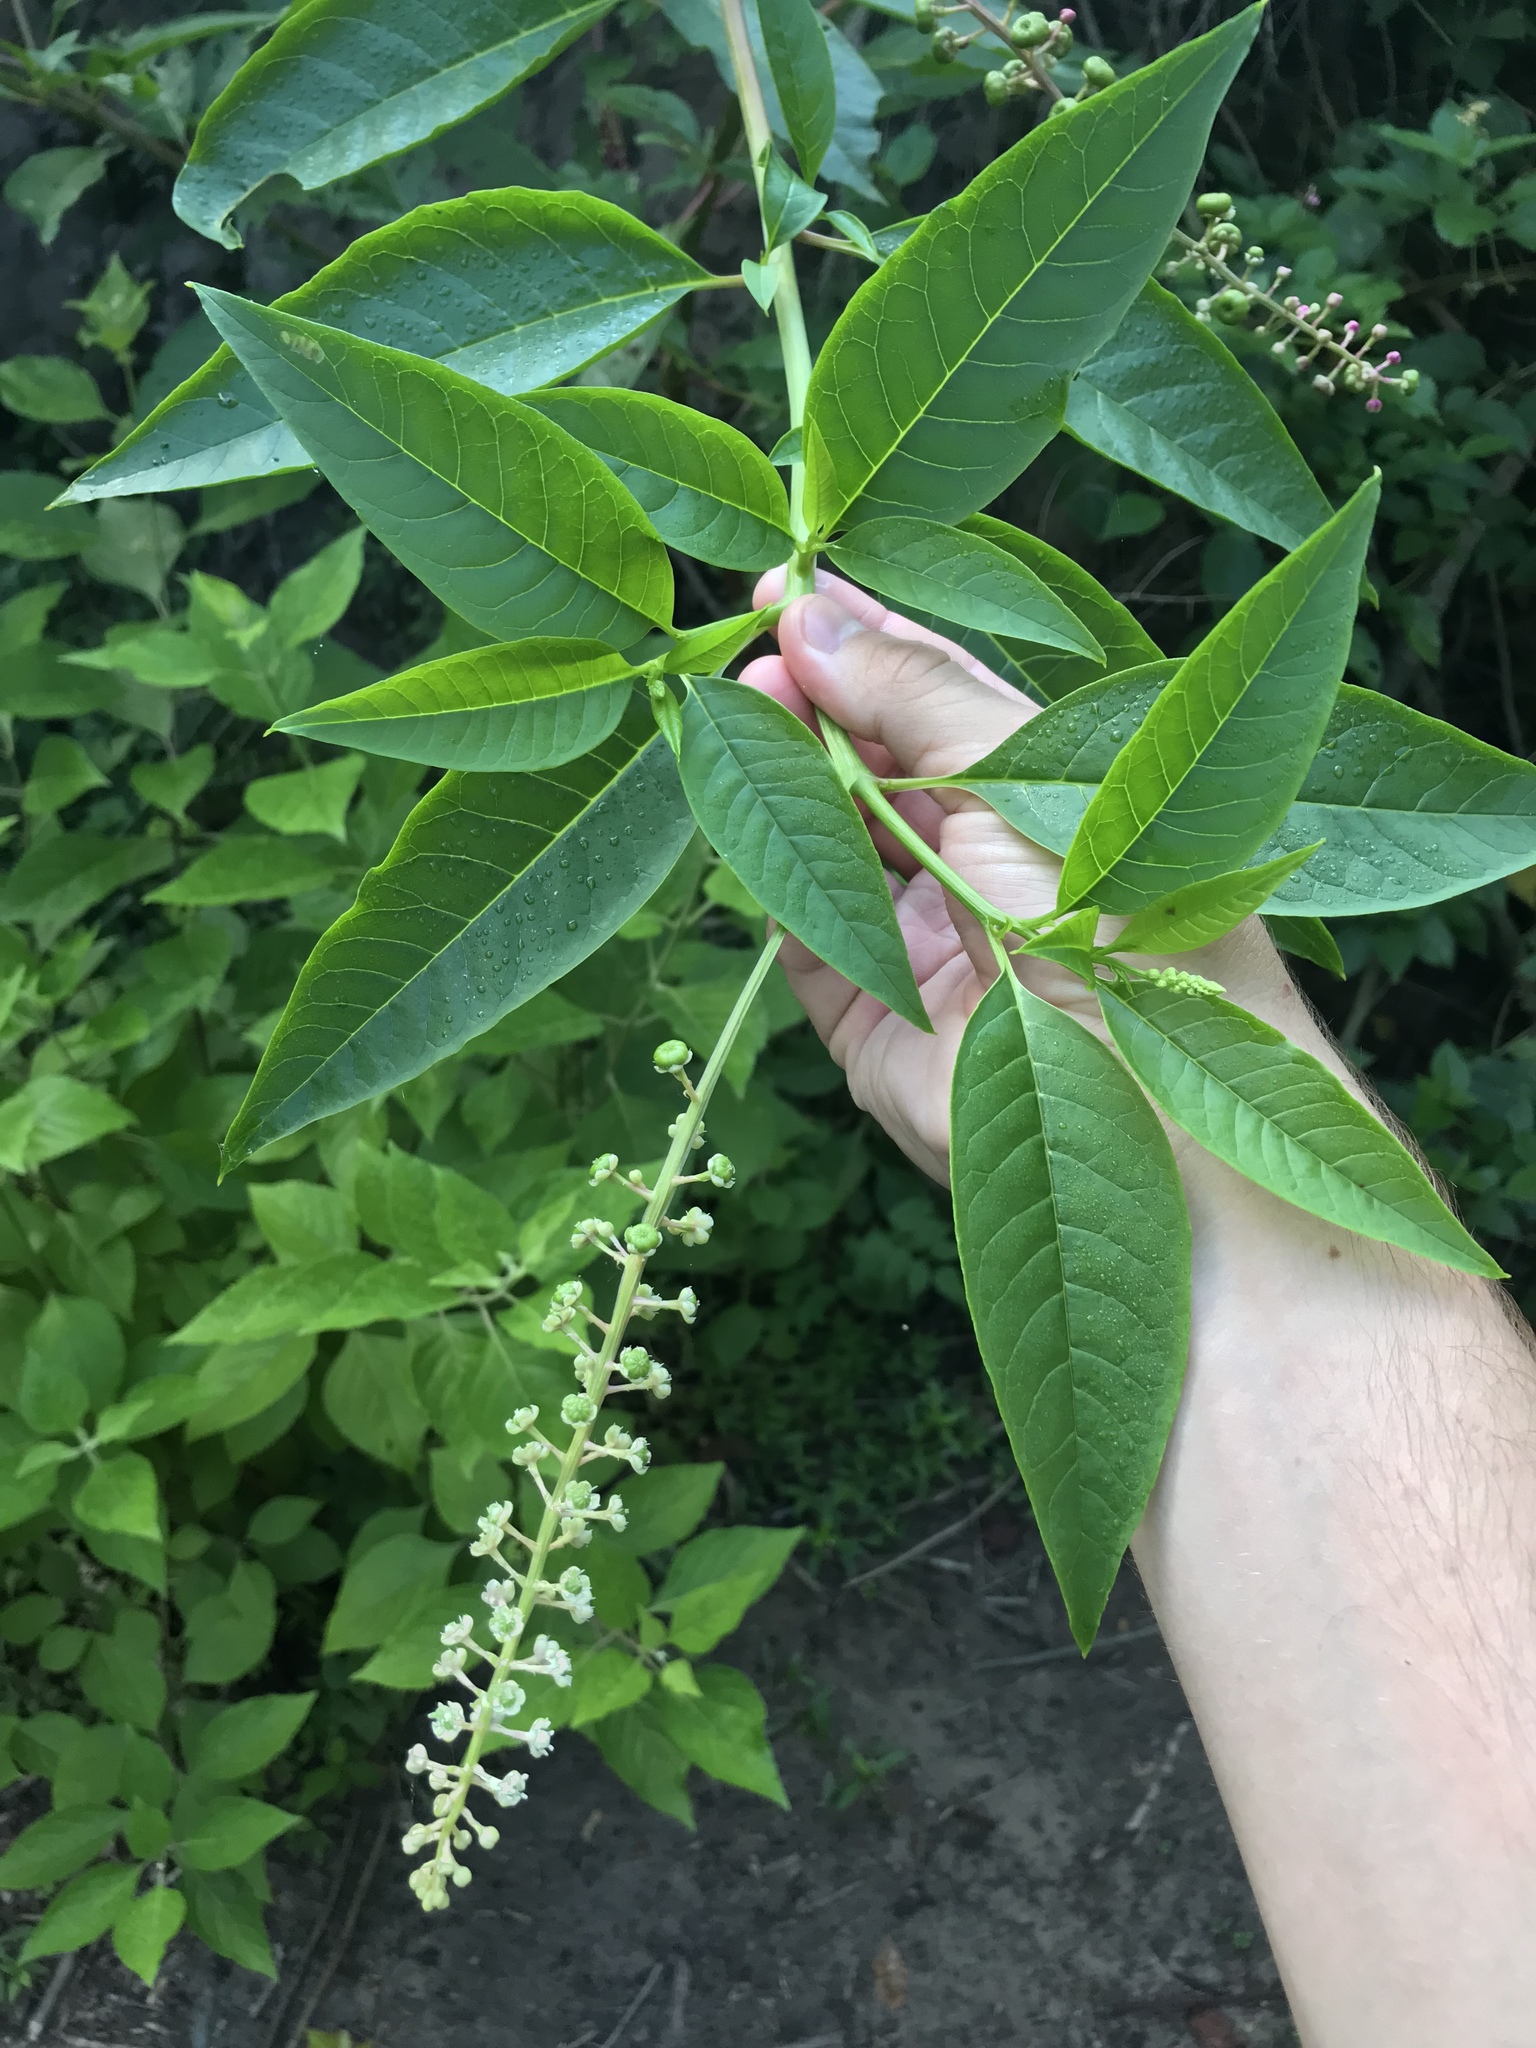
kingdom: Plantae
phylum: Tracheophyta
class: Magnoliopsida
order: Caryophyllales
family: Phytolaccaceae
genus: Phytolacca
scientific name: Phytolacca americana
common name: American pokeweed
